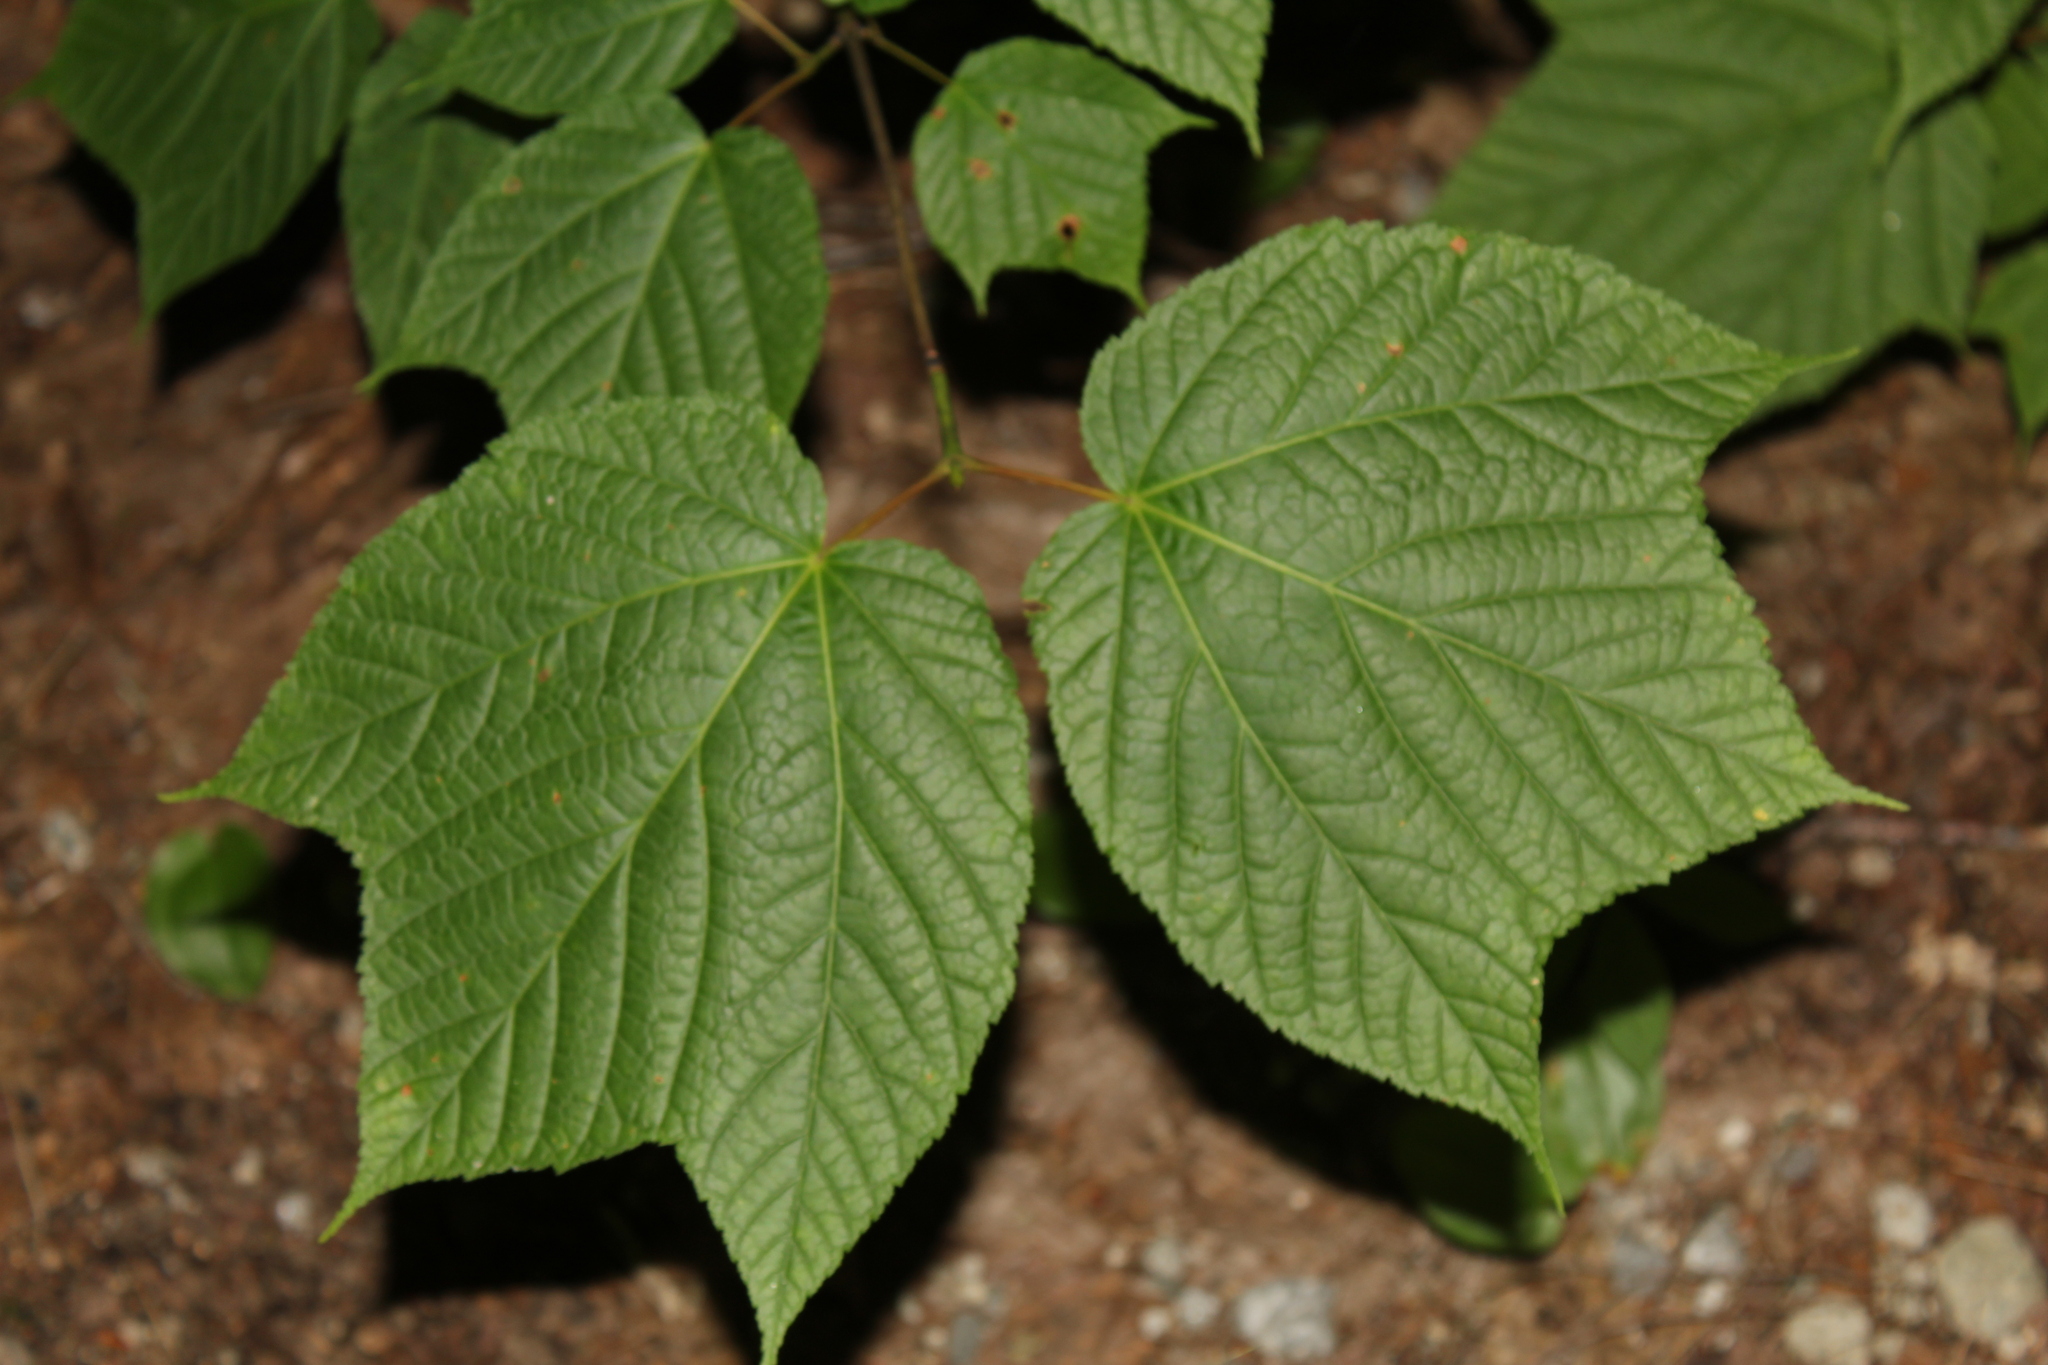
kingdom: Plantae
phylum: Tracheophyta
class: Magnoliopsida
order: Sapindales
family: Sapindaceae
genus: Acer
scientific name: Acer pensylvanicum
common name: Moosewood
